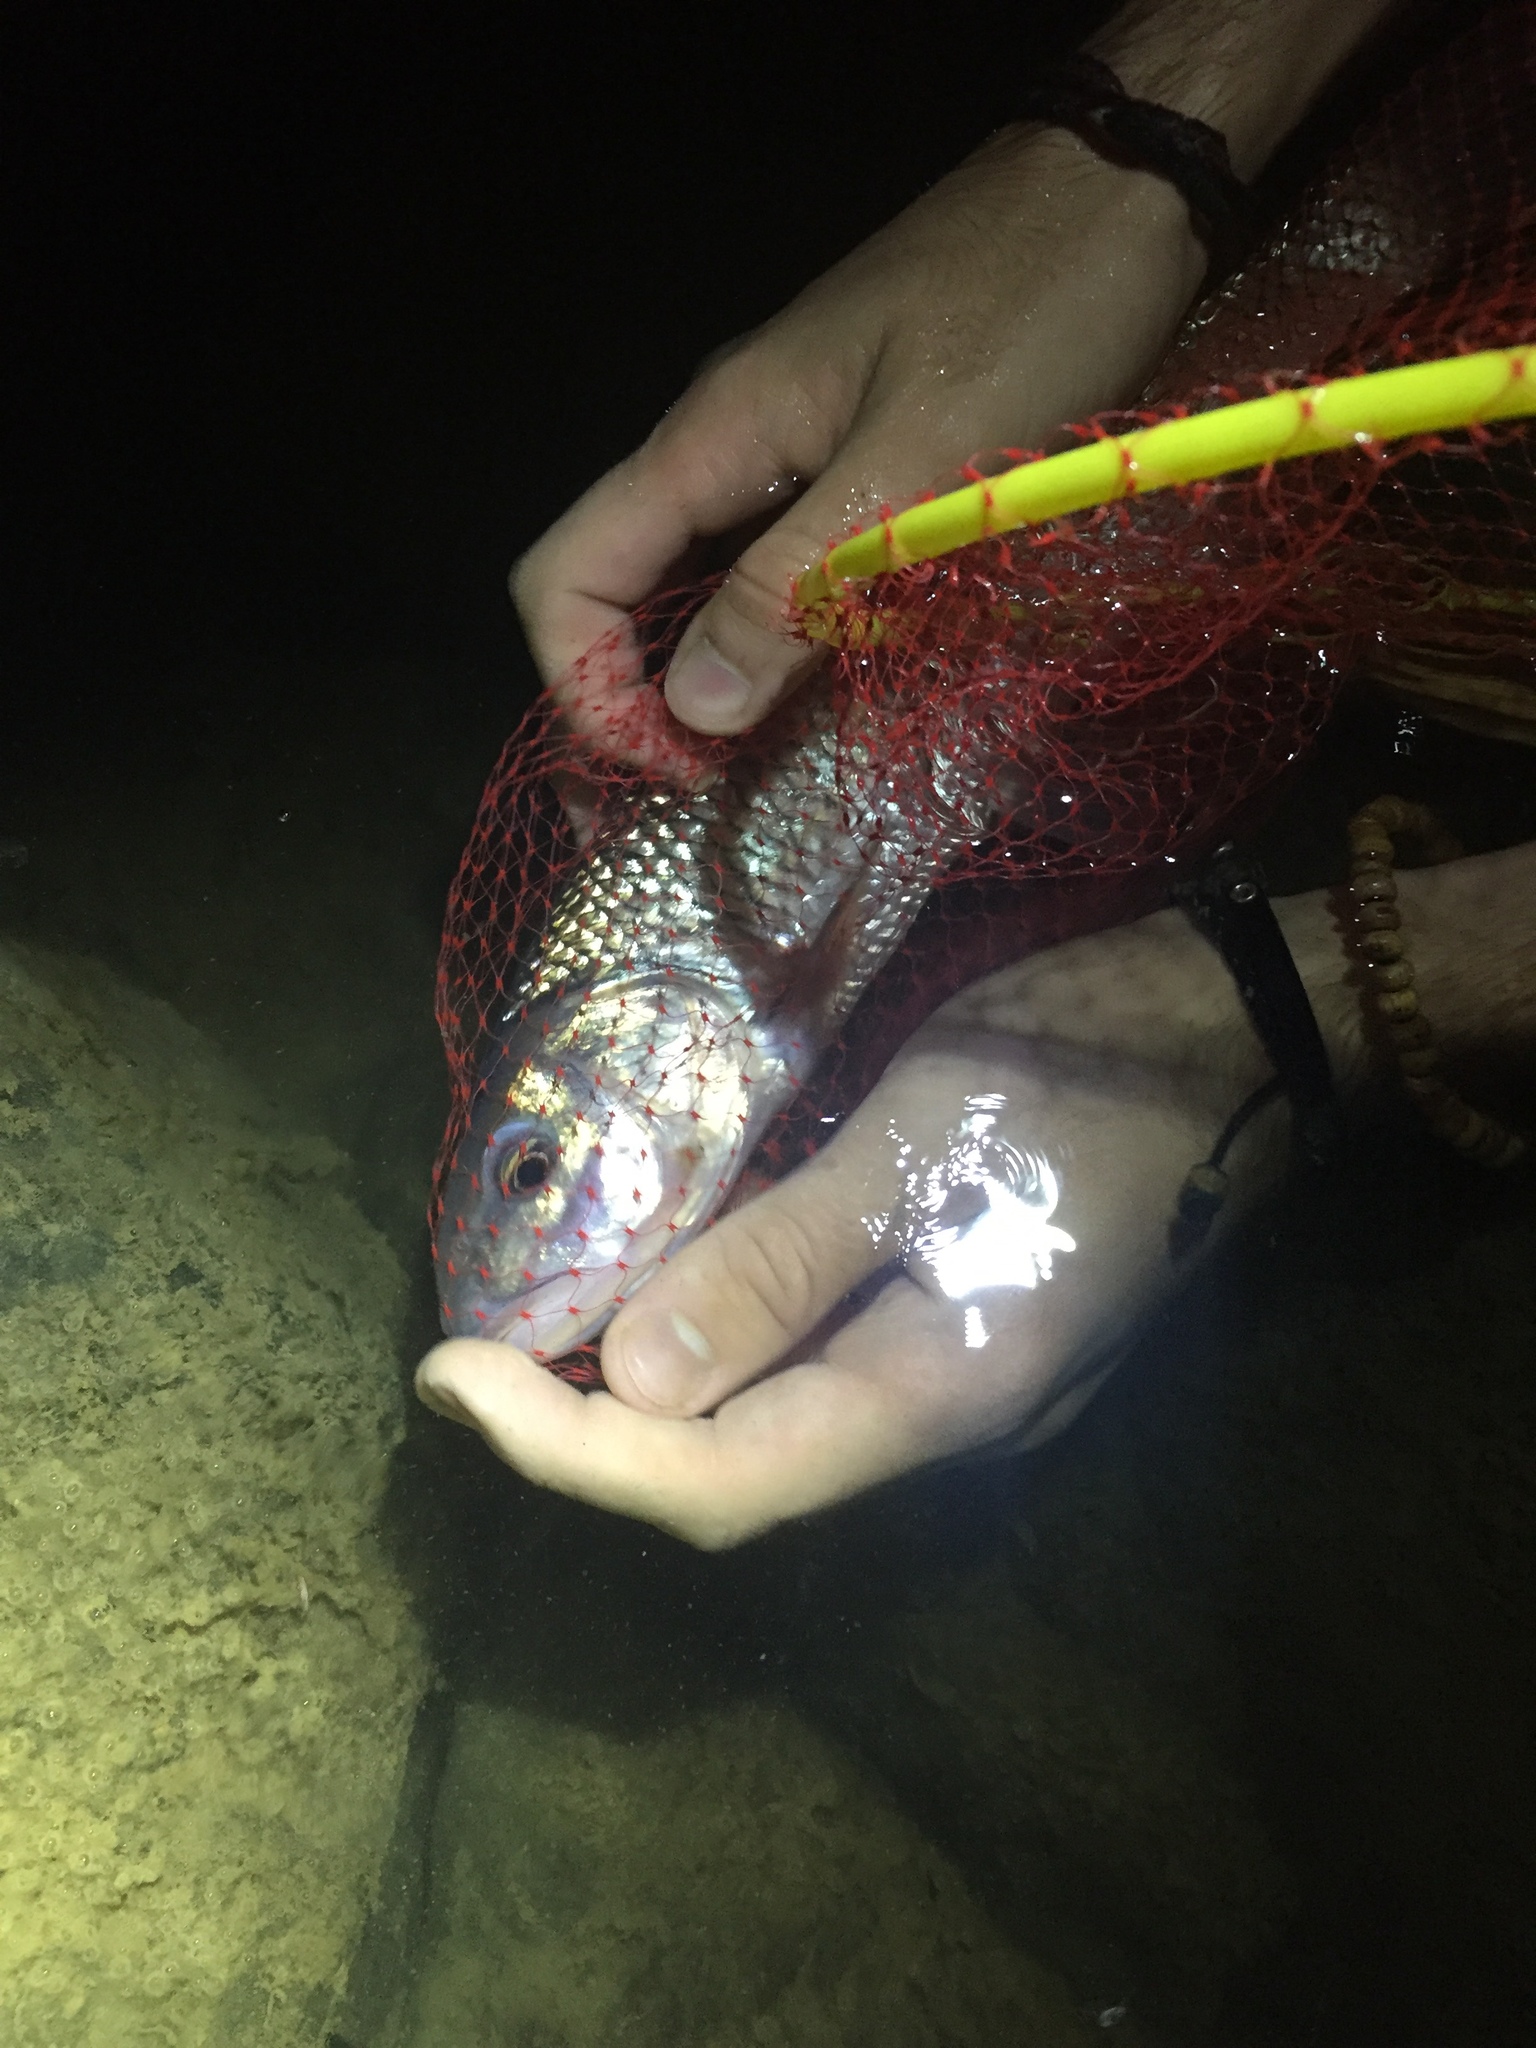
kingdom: Animalia
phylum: Chordata
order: Cypriniformes
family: Cyprinidae
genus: Semotilus
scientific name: Semotilus corporalis
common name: Fallfish
